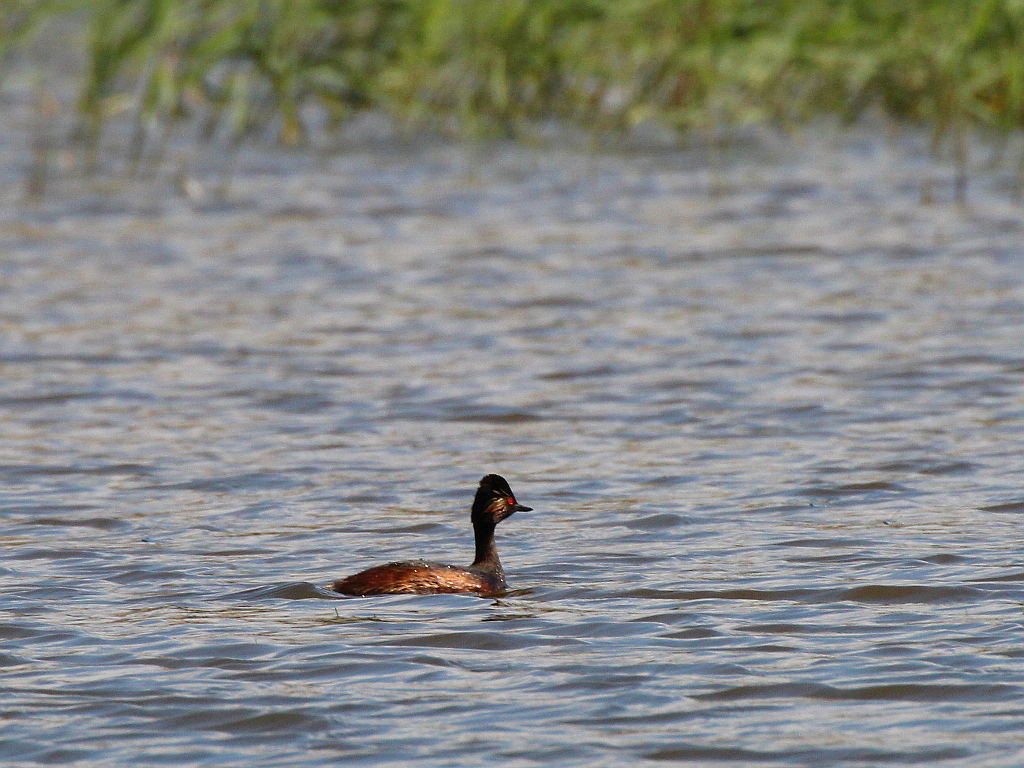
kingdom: Animalia
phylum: Chordata
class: Aves
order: Podicipediformes
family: Podicipedidae
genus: Podiceps
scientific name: Podiceps nigricollis
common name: Black-necked grebe
